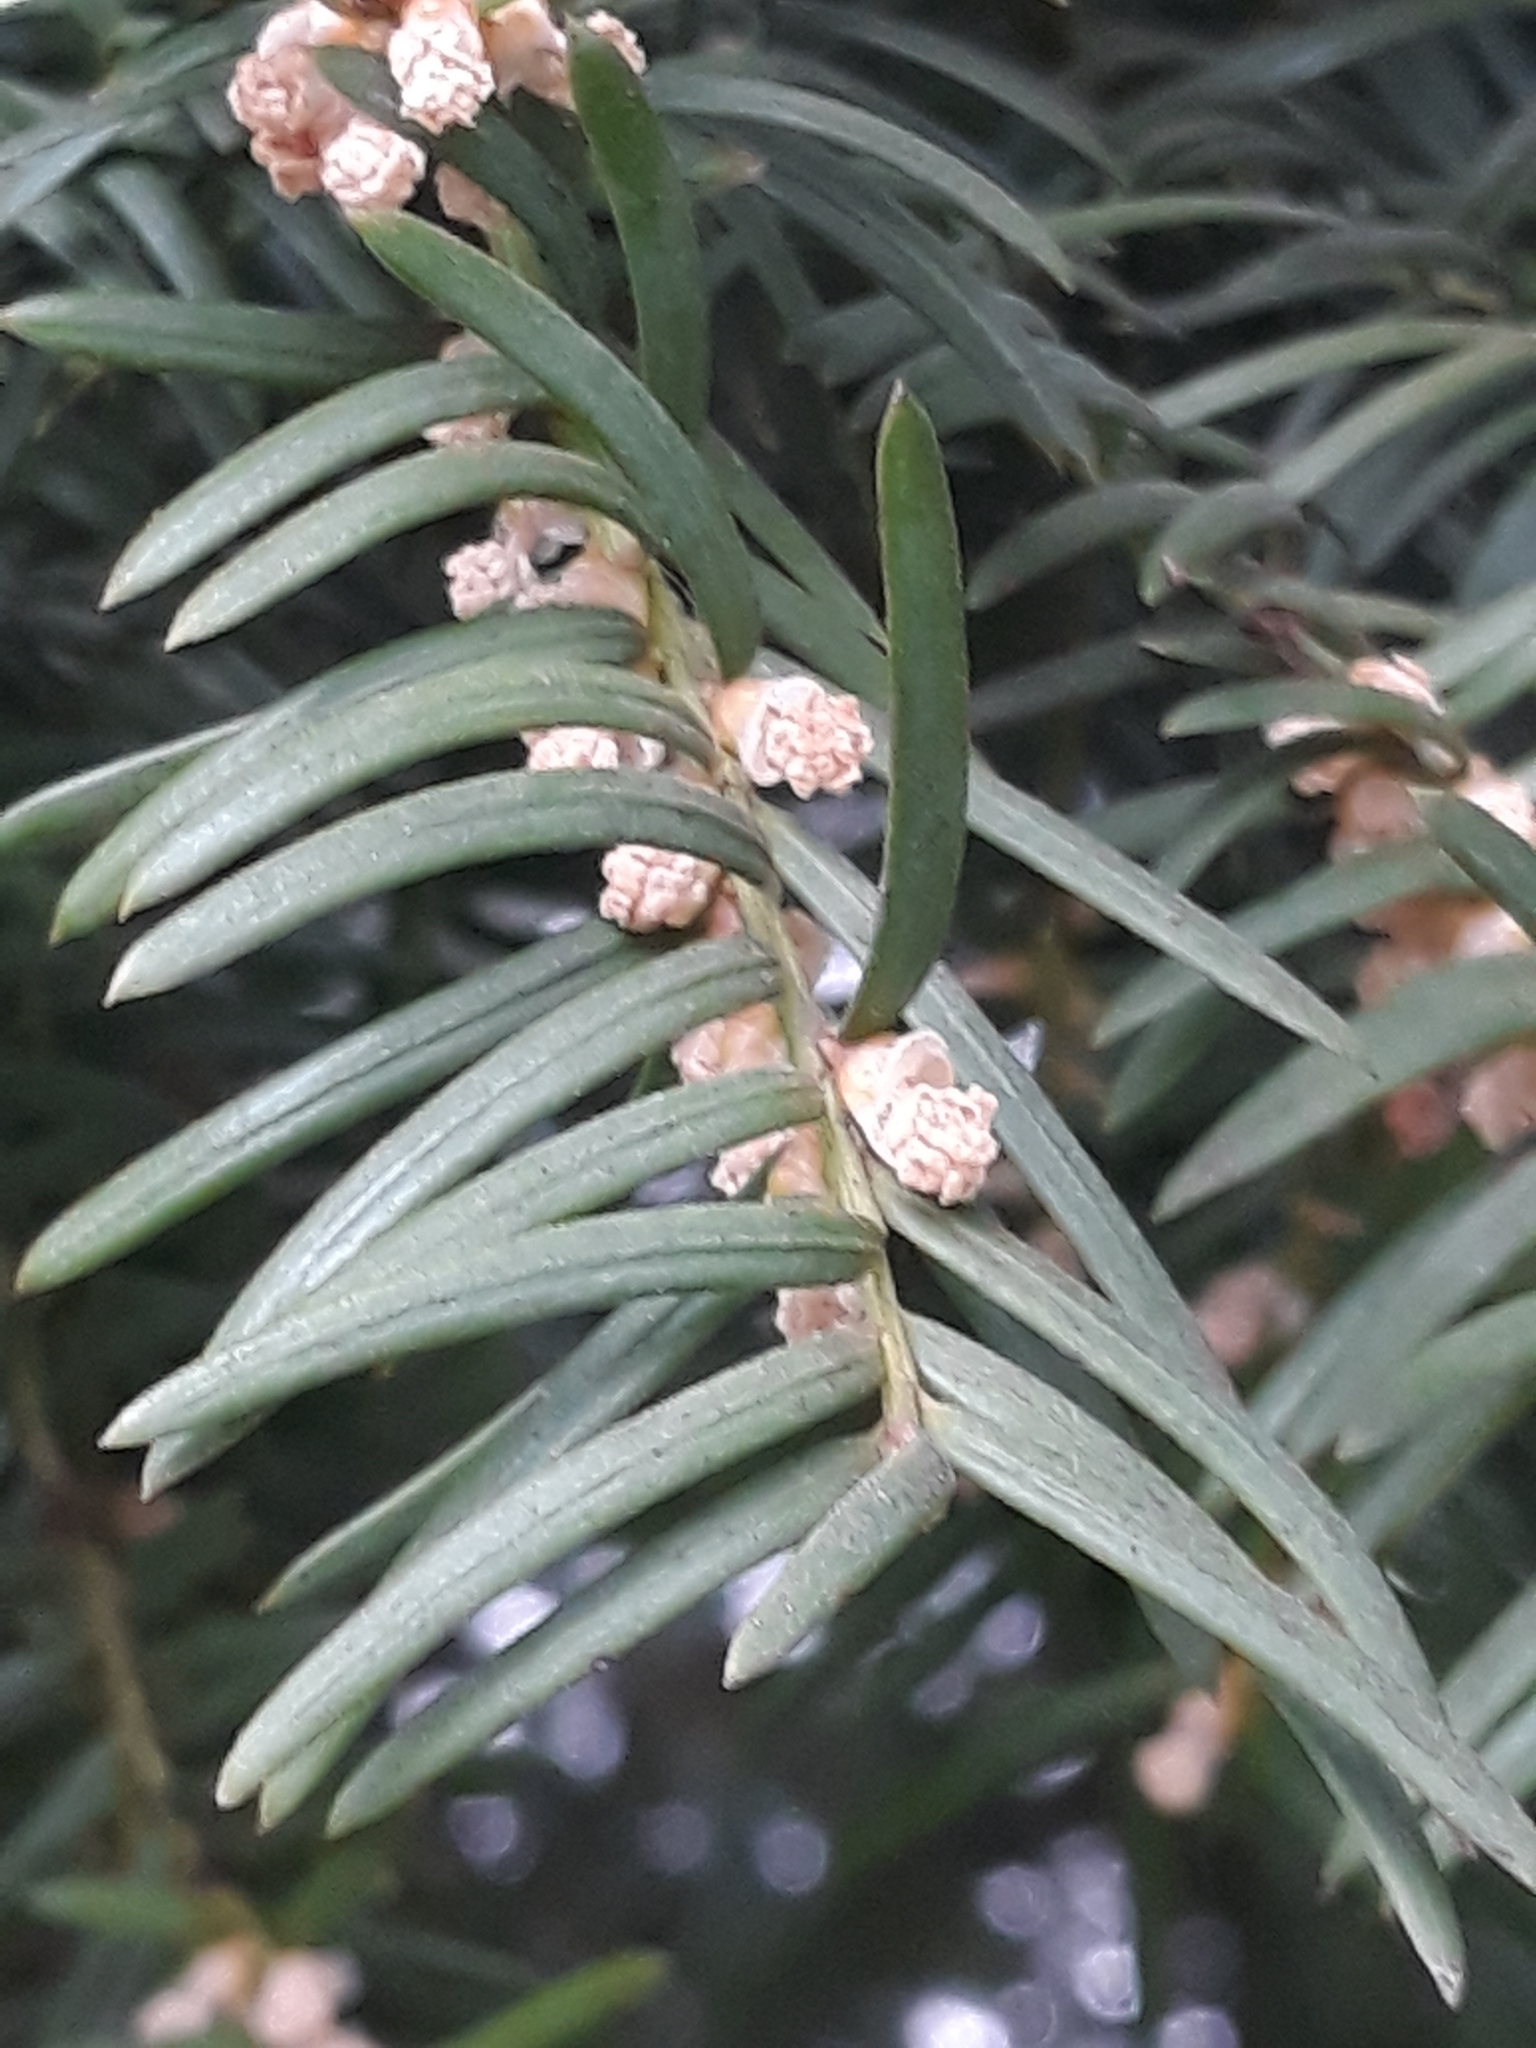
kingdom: Plantae
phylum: Tracheophyta
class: Pinopsida
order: Pinales
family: Taxaceae
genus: Taxus
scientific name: Taxus baccata
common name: Yew
